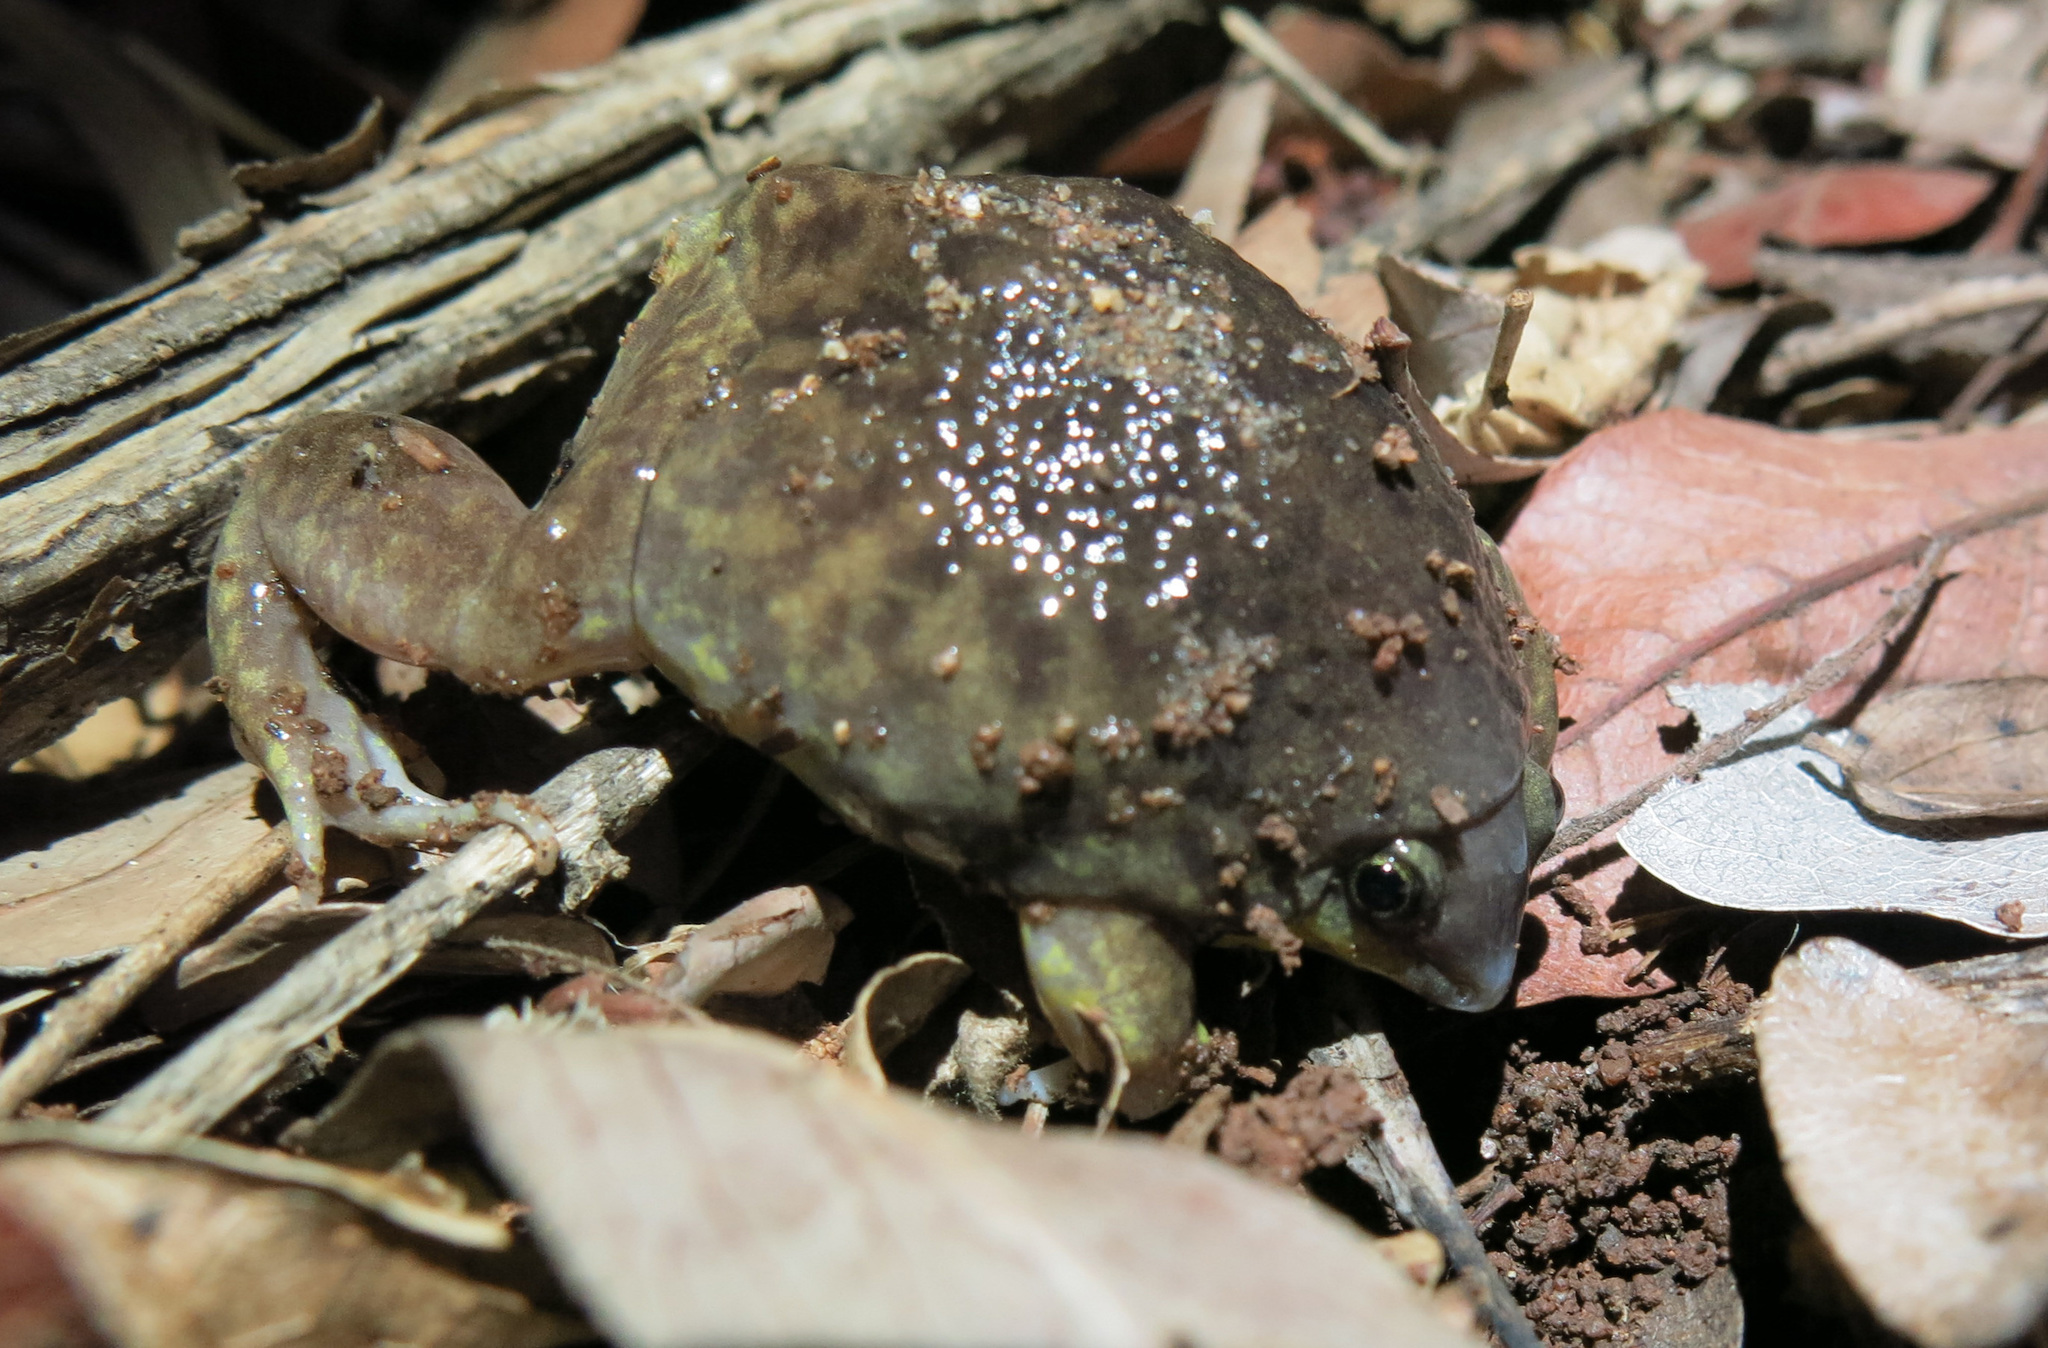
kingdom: Animalia
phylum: Chordata
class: Amphibia
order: Anura
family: Hemisotidae
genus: Hemisus
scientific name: Hemisus marmoratus
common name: Mottled shovel-nosed frog
